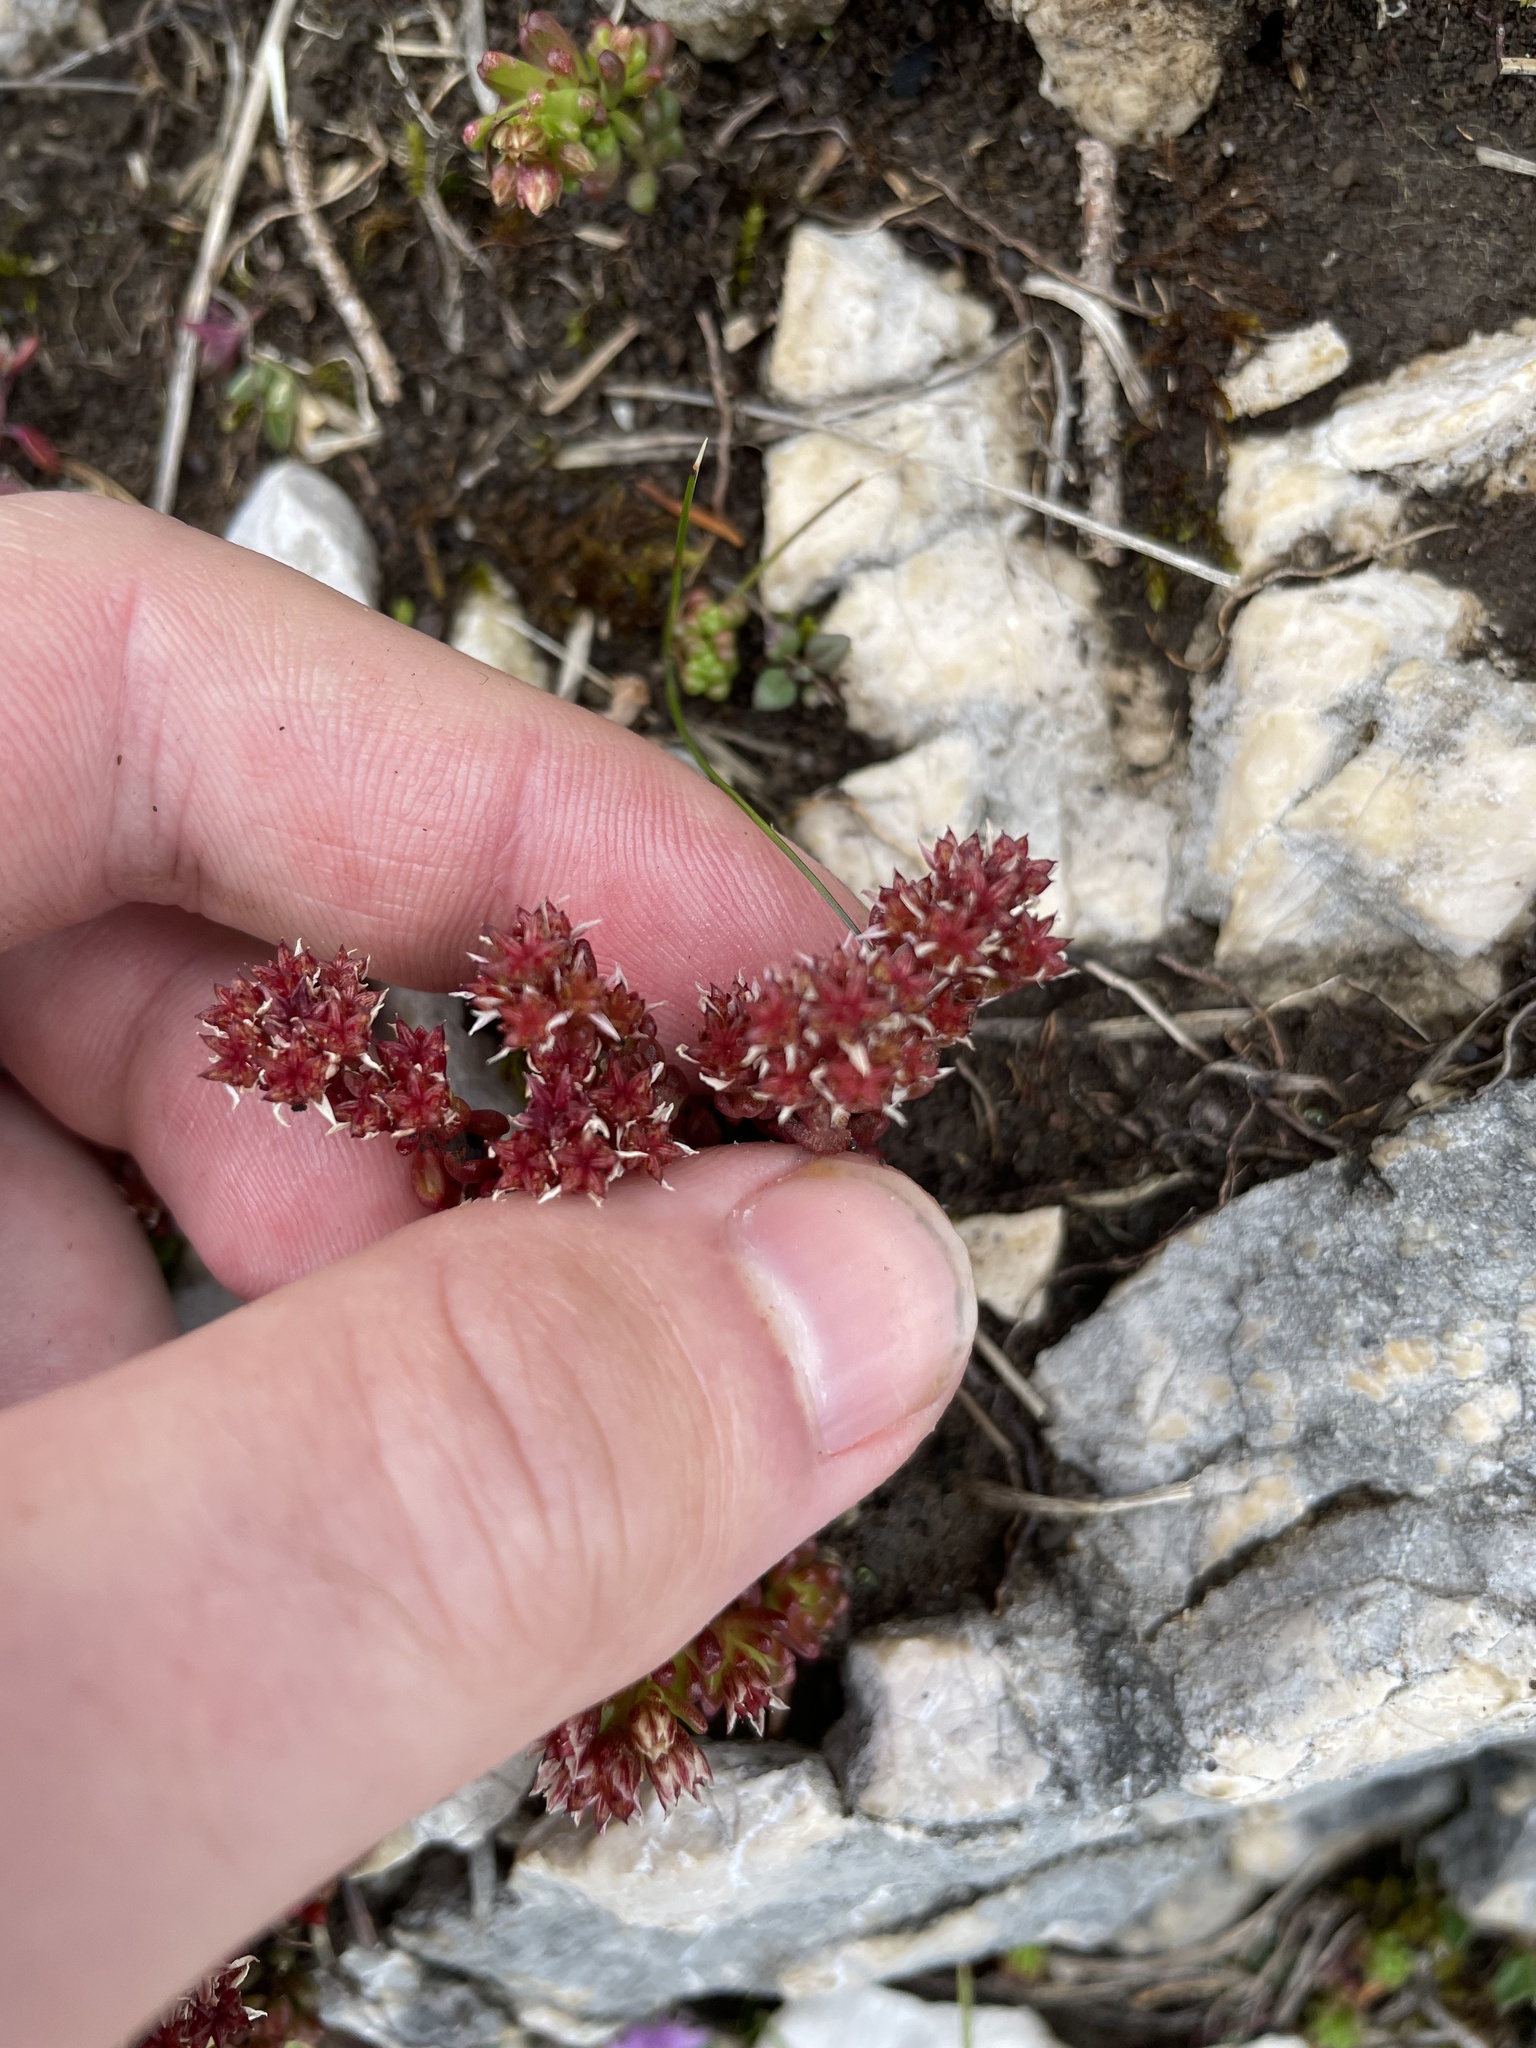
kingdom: Plantae
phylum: Tracheophyta
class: Magnoliopsida
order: Saxifragales
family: Crassulaceae
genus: Sedum
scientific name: Sedum atratum
